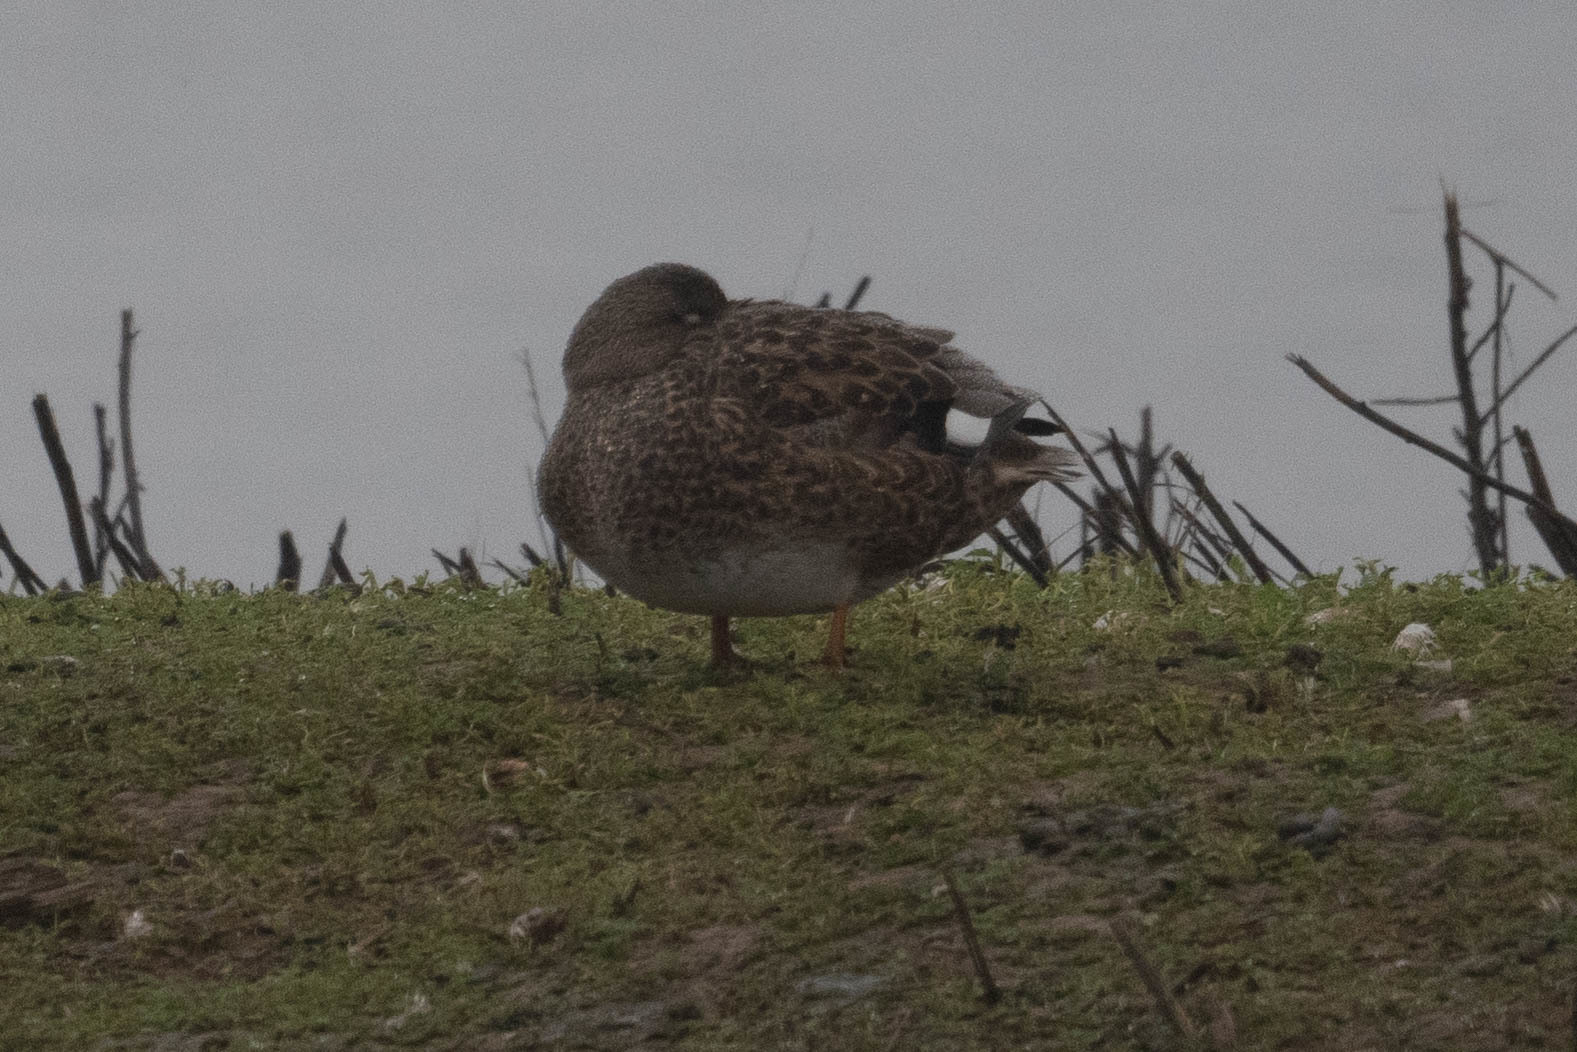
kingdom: Animalia
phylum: Chordata
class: Aves
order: Anseriformes
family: Anatidae
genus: Mareca
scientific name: Mareca strepera
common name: Gadwall
